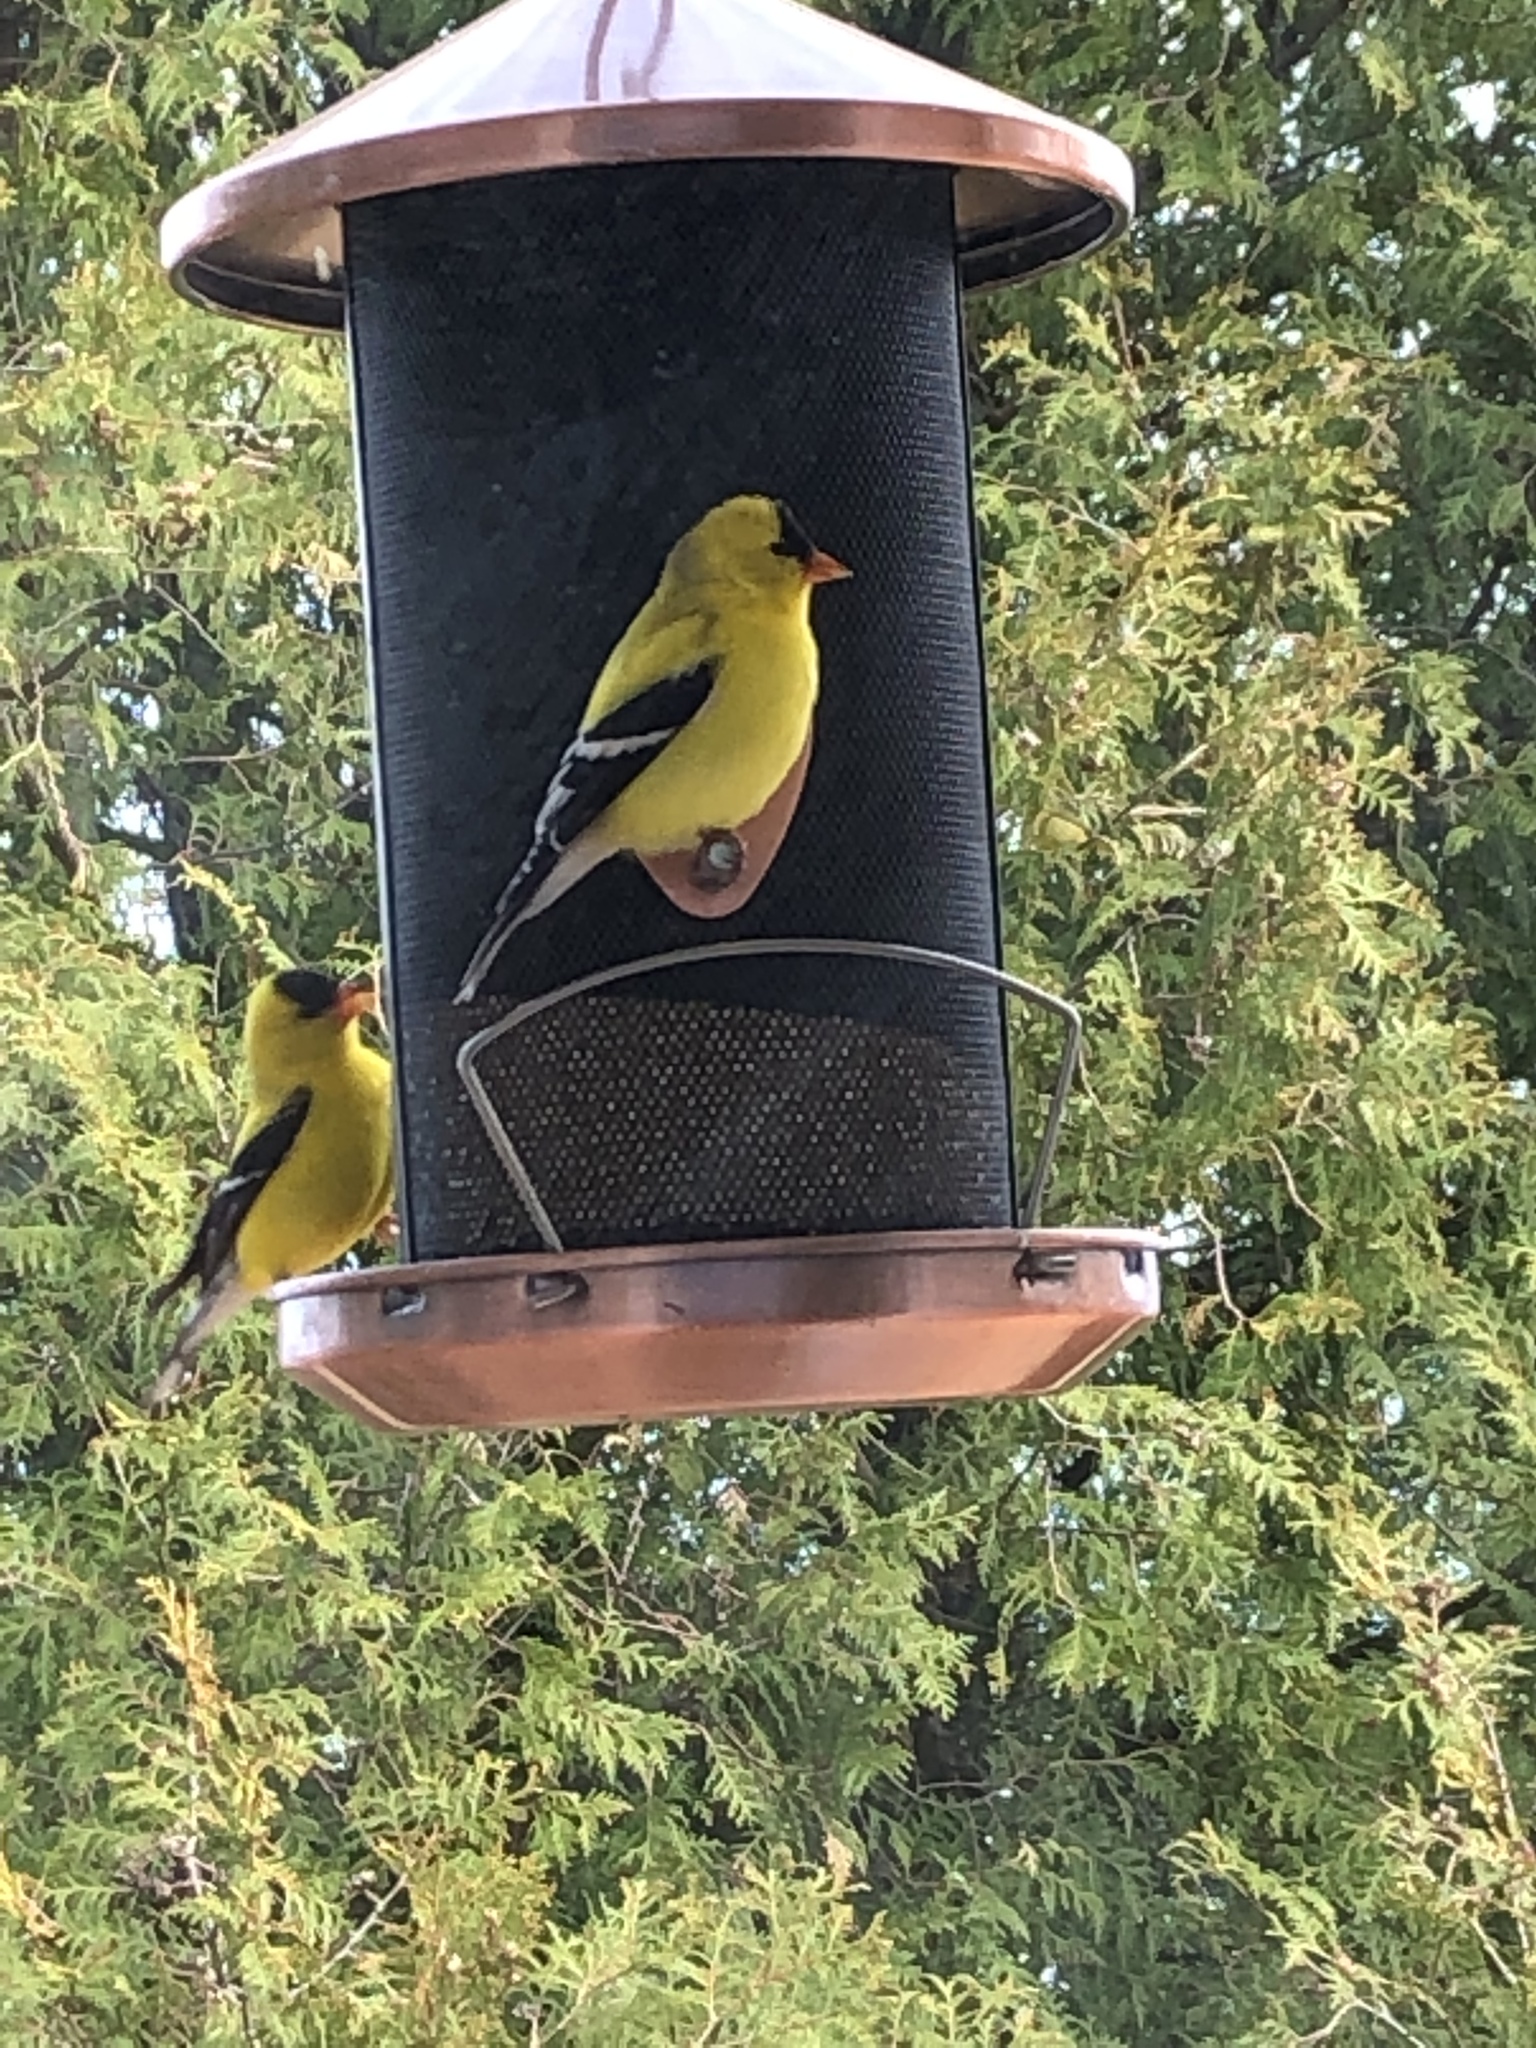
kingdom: Animalia
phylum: Chordata
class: Aves
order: Passeriformes
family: Fringillidae
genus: Spinus
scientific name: Spinus tristis
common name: American goldfinch
